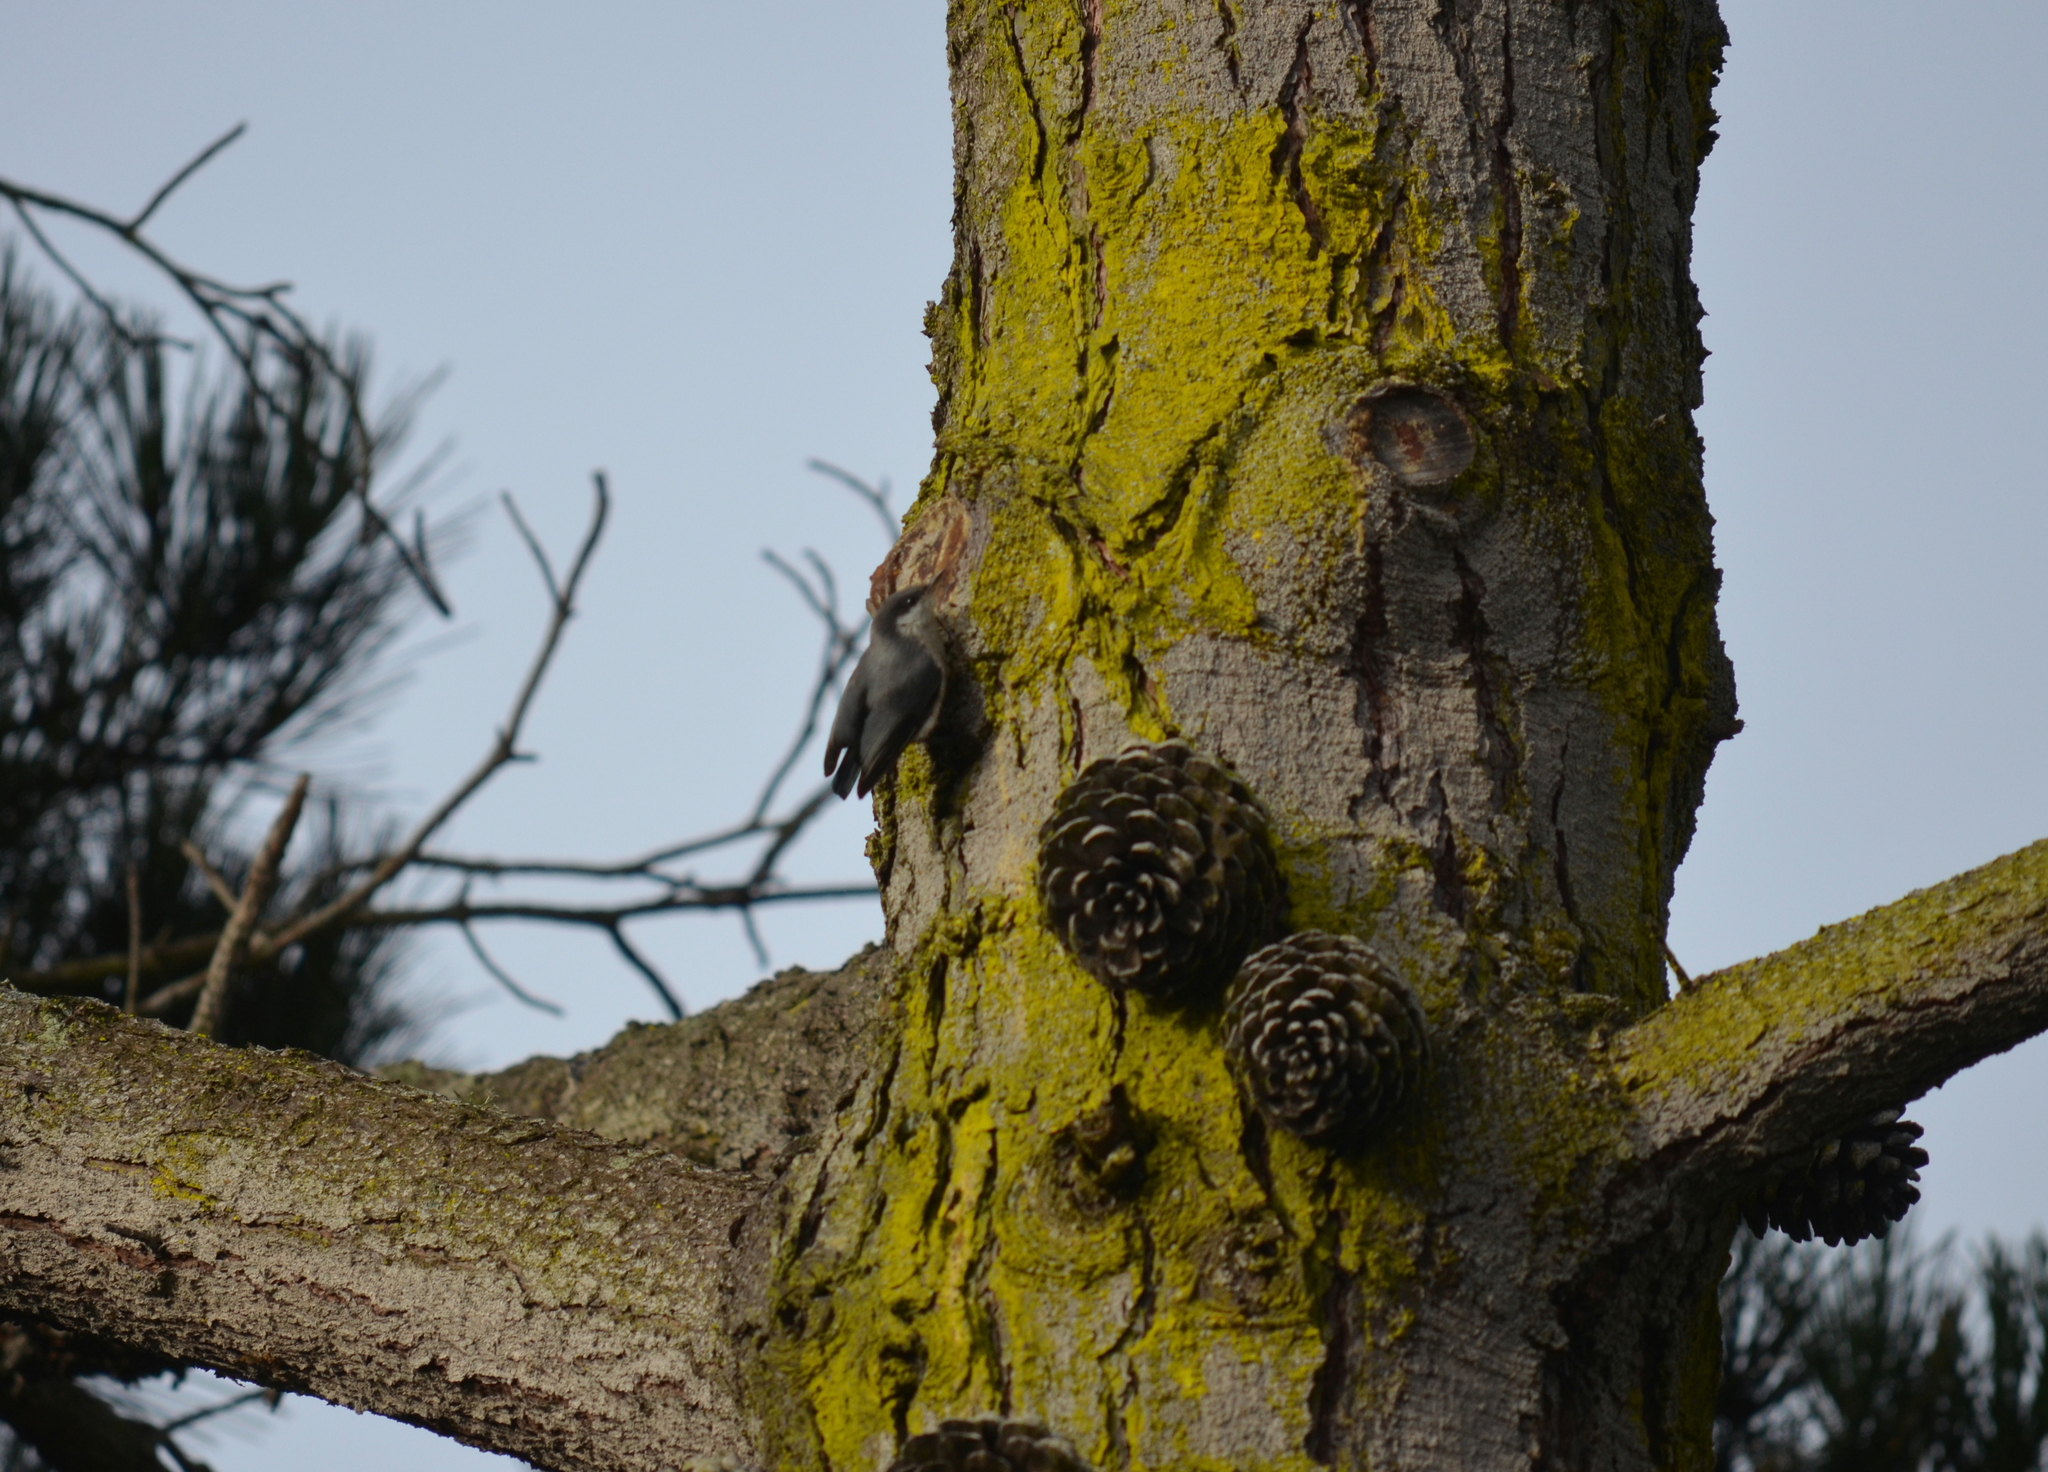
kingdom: Animalia
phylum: Chordata
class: Aves
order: Passeriformes
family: Sittidae
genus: Sitta
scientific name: Sitta pygmaea
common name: Pygmy nuthatch
